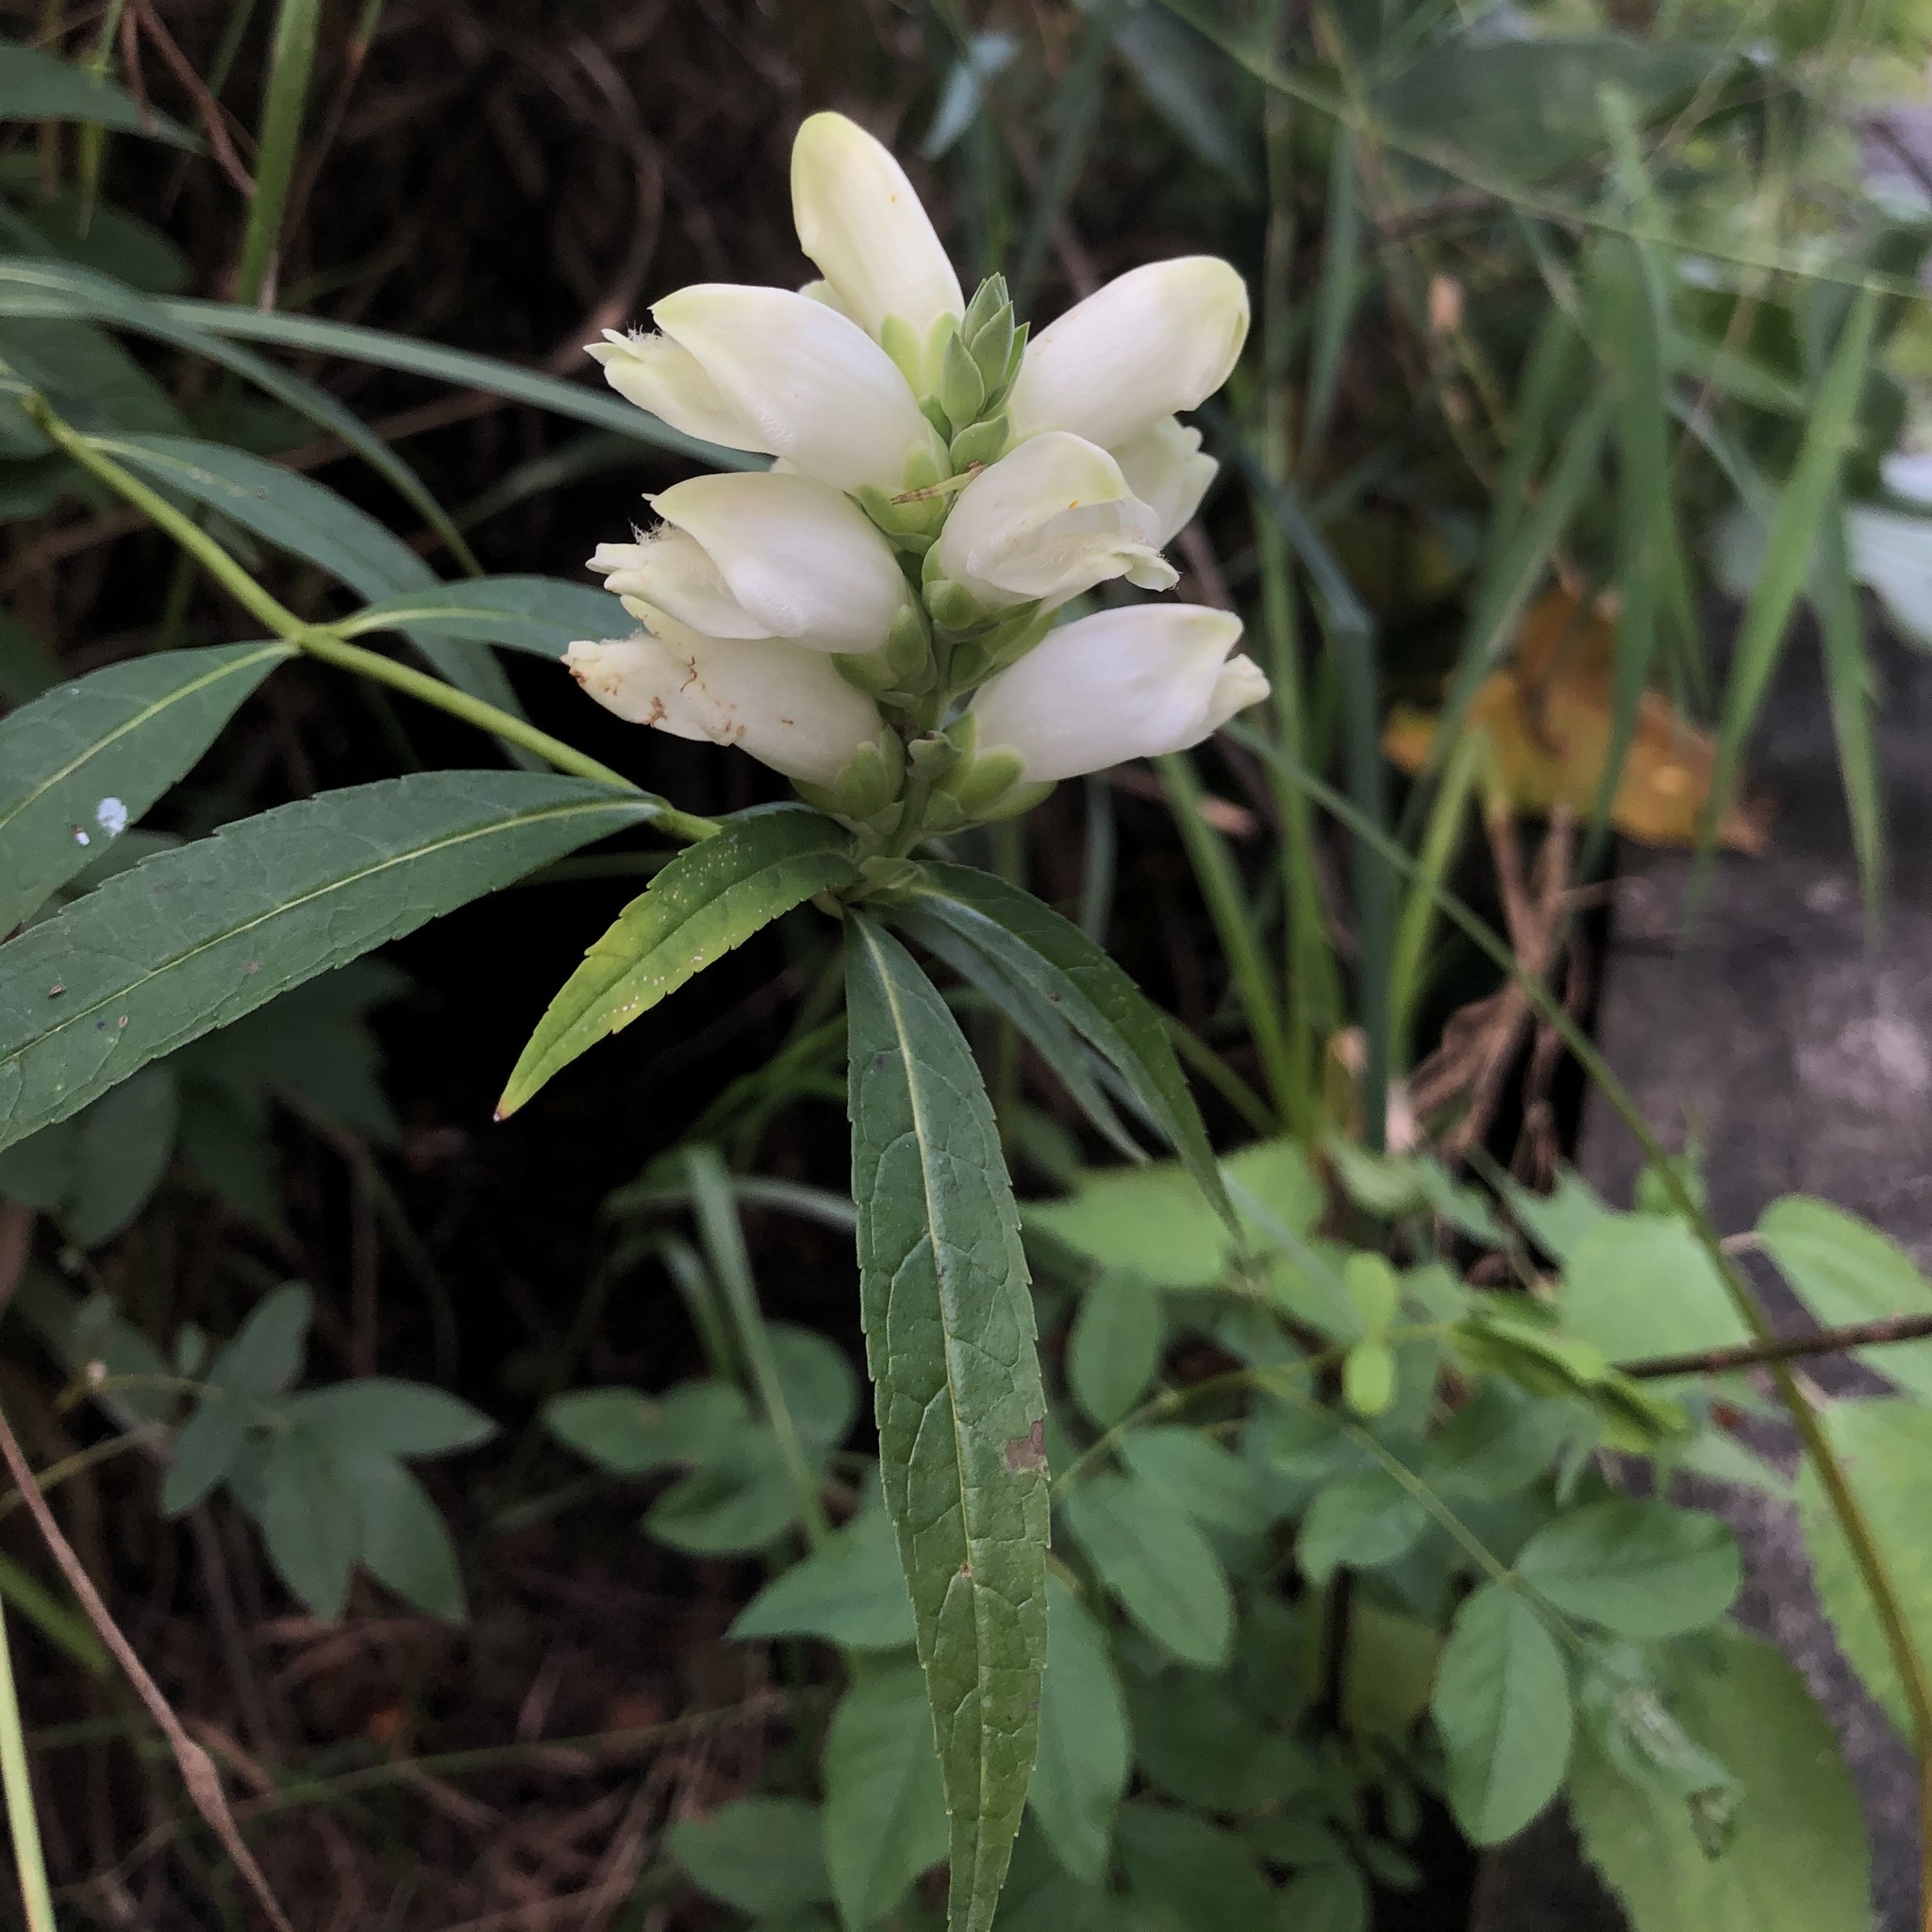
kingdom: Plantae
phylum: Tracheophyta
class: Magnoliopsida
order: Lamiales
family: Plantaginaceae
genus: Chelone
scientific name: Chelone glabra
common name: Snakehead
